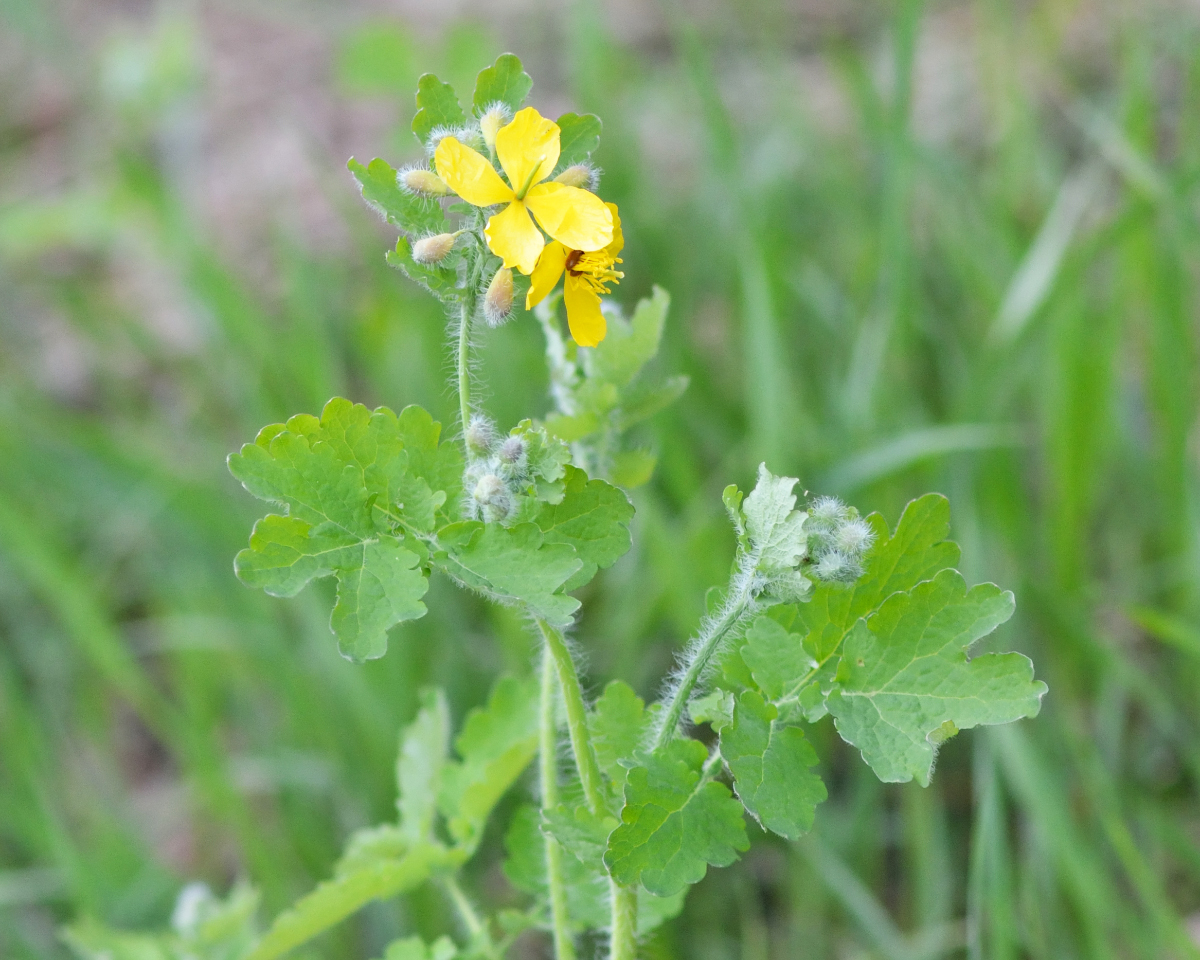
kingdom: Plantae
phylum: Tracheophyta
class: Magnoliopsida
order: Ranunculales
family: Papaveraceae
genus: Chelidonium
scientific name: Chelidonium majus
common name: Greater celandine
